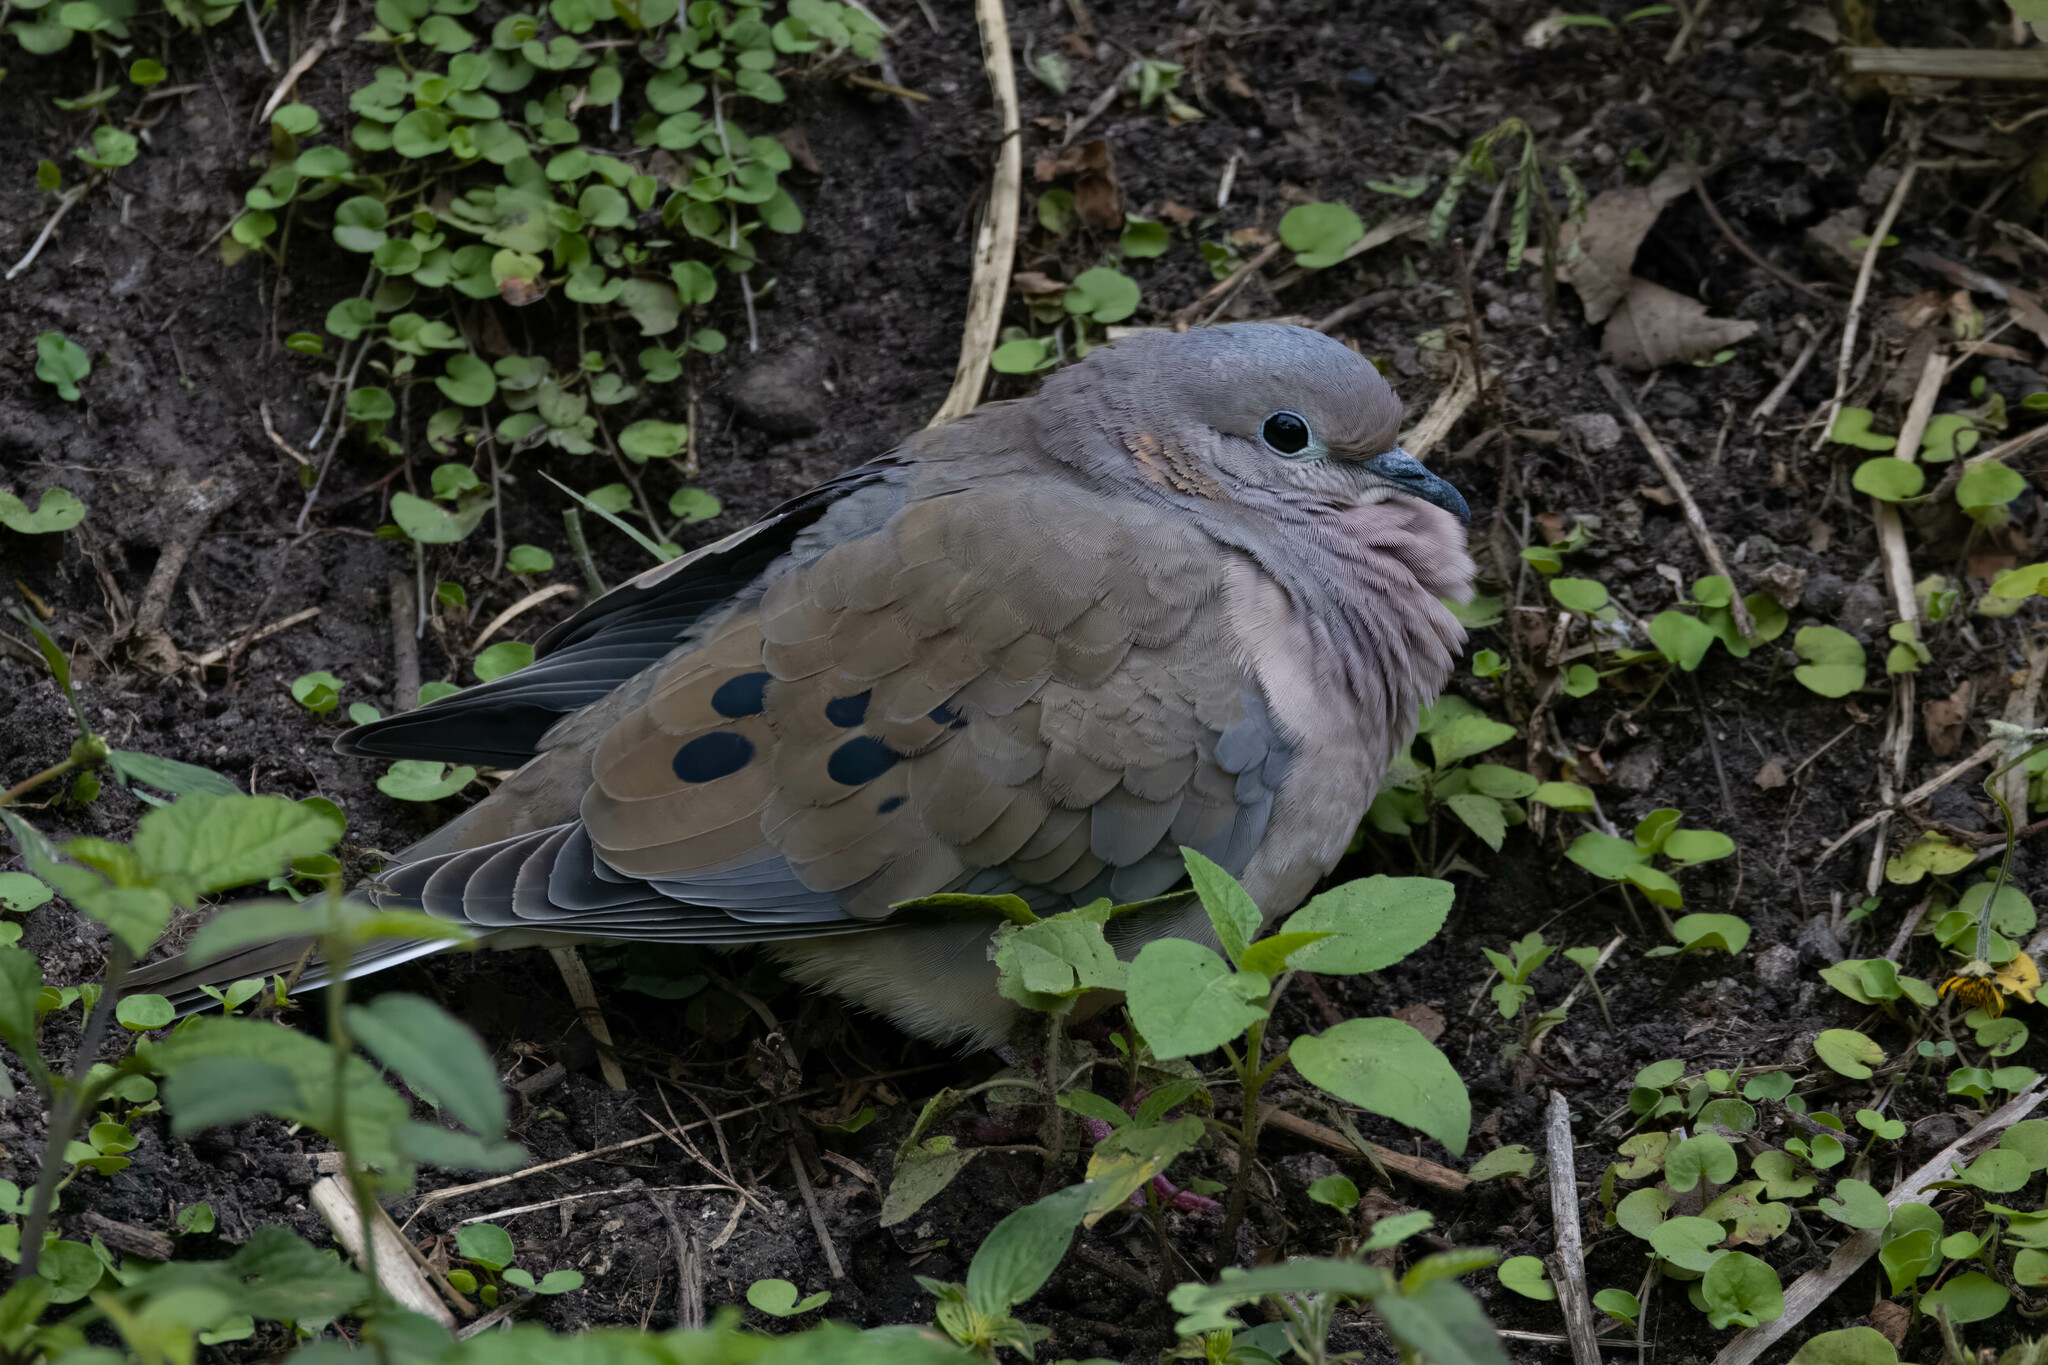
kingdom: Animalia
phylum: Chordata
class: Aves
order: Columbiformes
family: Columbidae
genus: Zenaida
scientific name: Zenaida auriculata
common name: Eared dove
